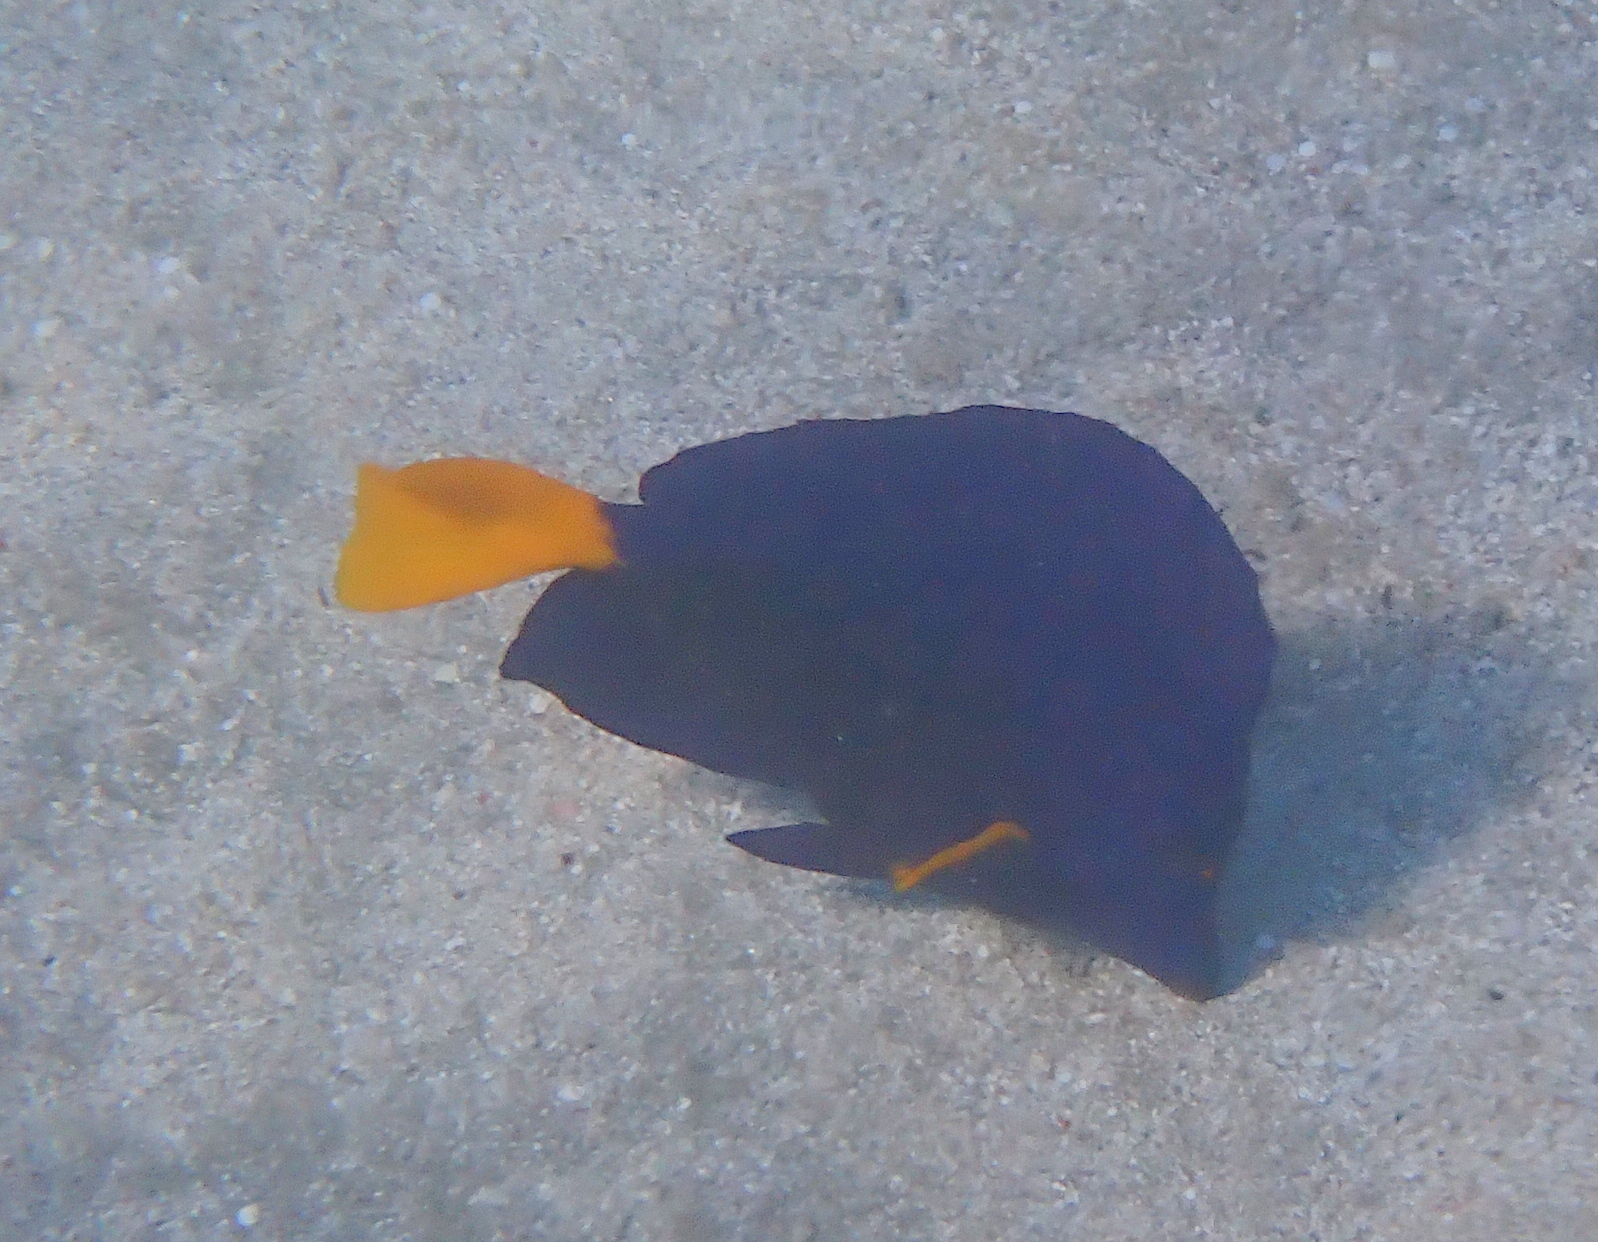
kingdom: Animalia
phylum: Chordata
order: Perciformes
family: Acanthuridae
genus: Zebrasoma
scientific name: Zebrasoma xanthurum
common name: Purple tang
